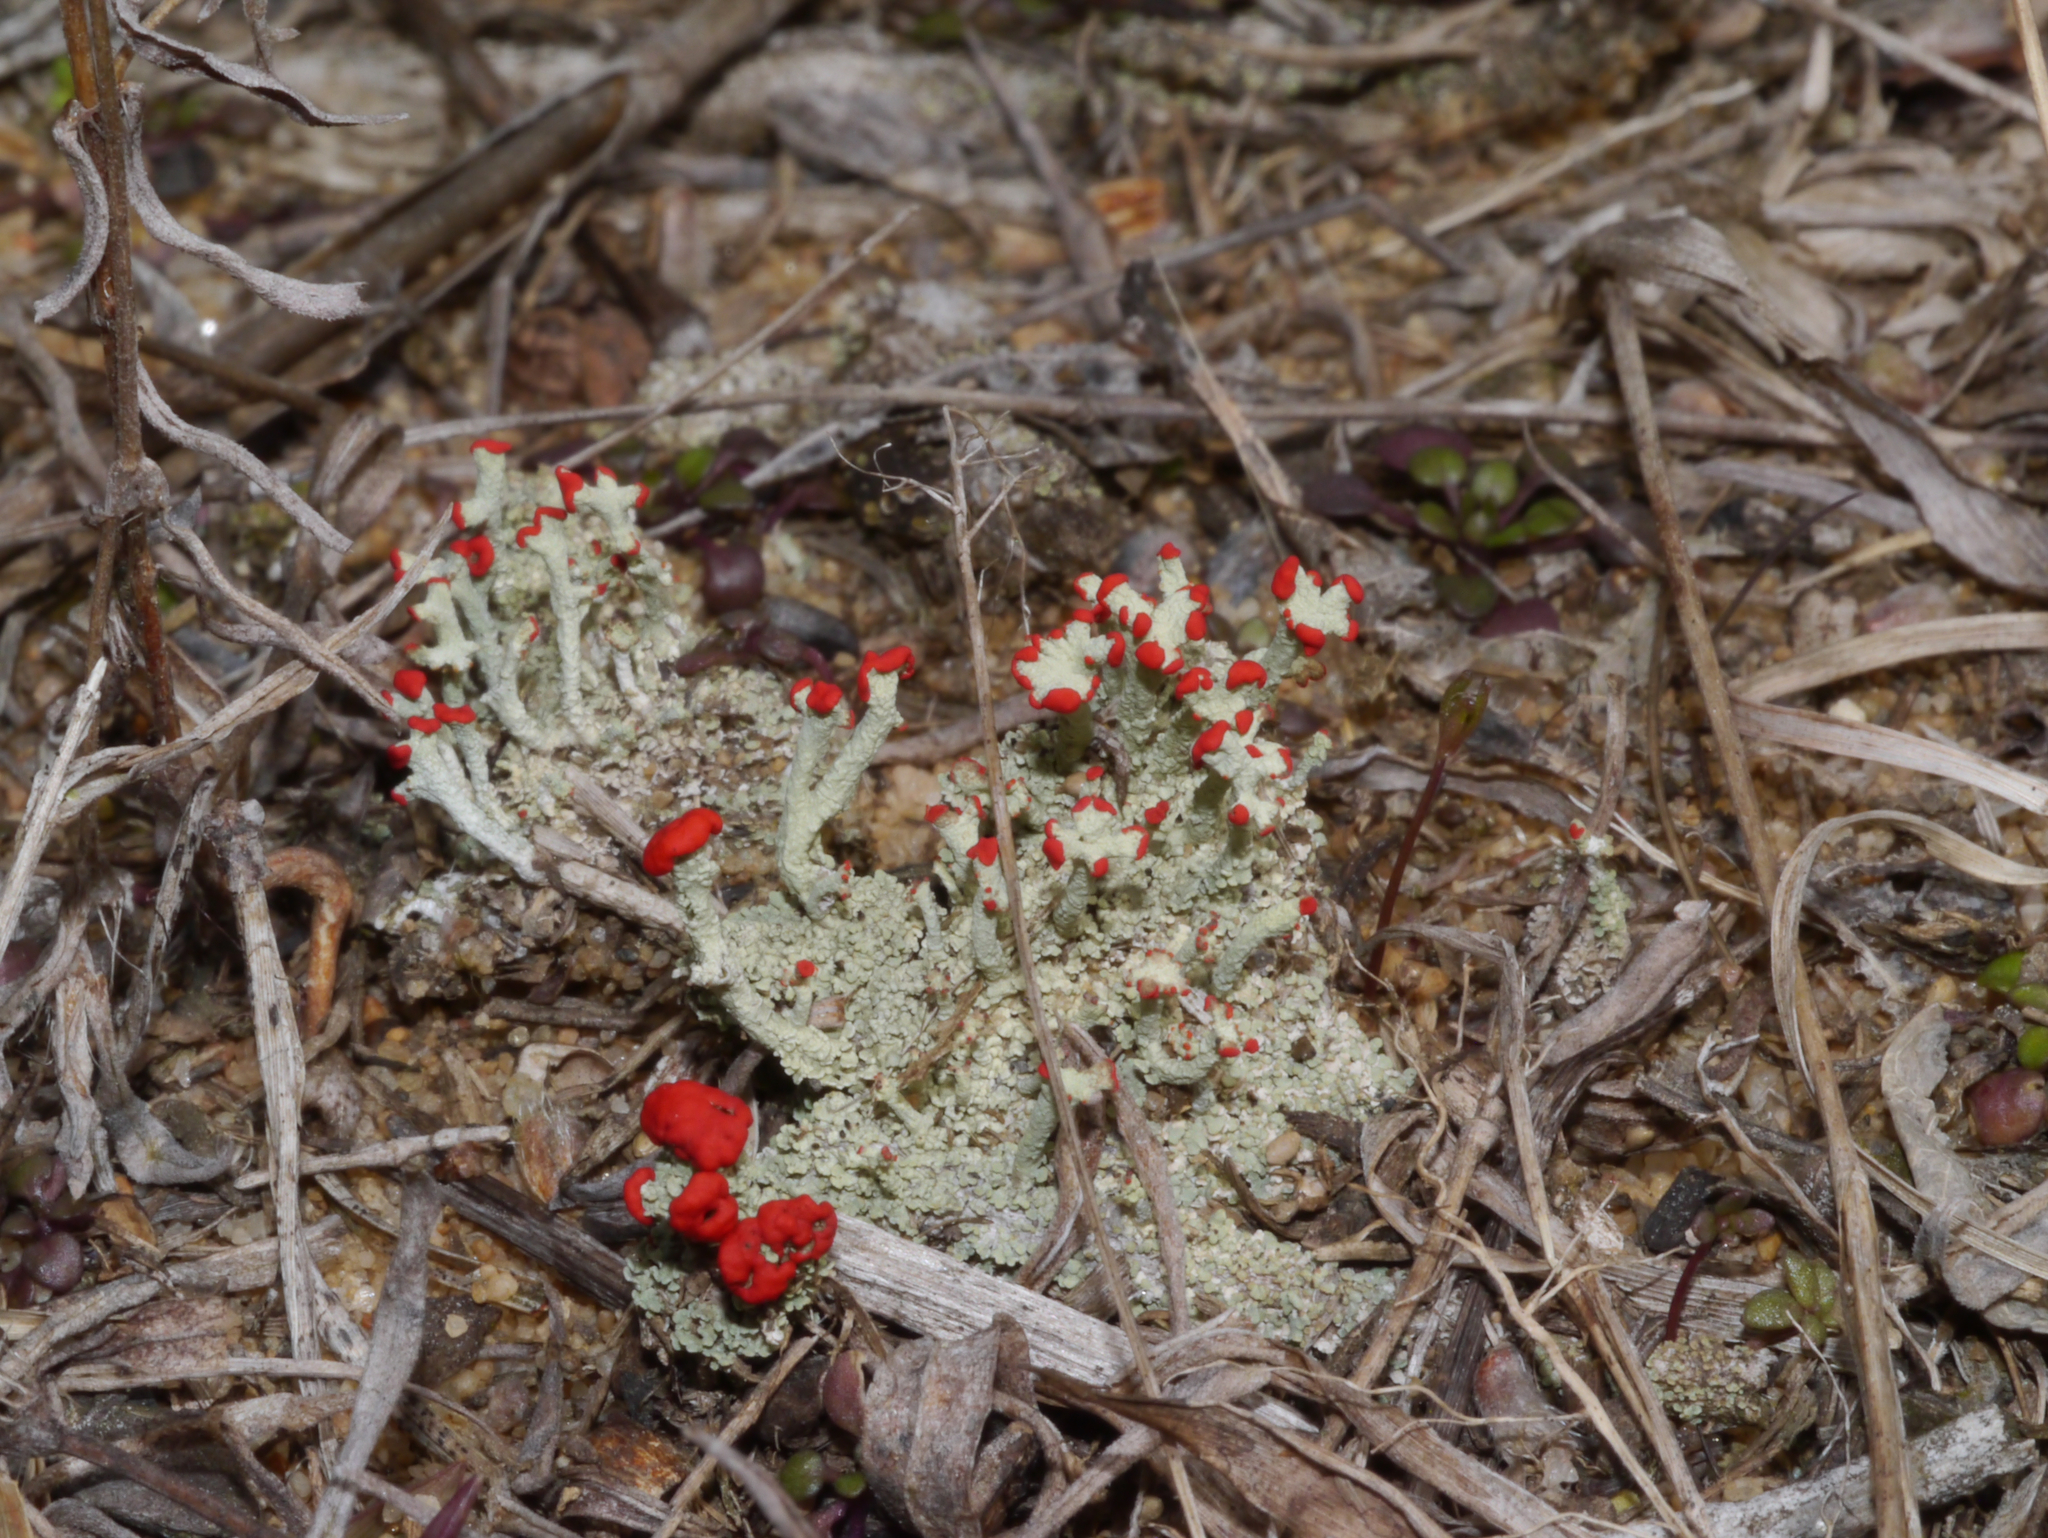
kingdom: Fungi
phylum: Ascomycota
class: Lecanoromycetes
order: Lecanorales
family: Cladoniaceae
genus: Cladonia
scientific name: Cladonia cristatella
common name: British soldier lichen
